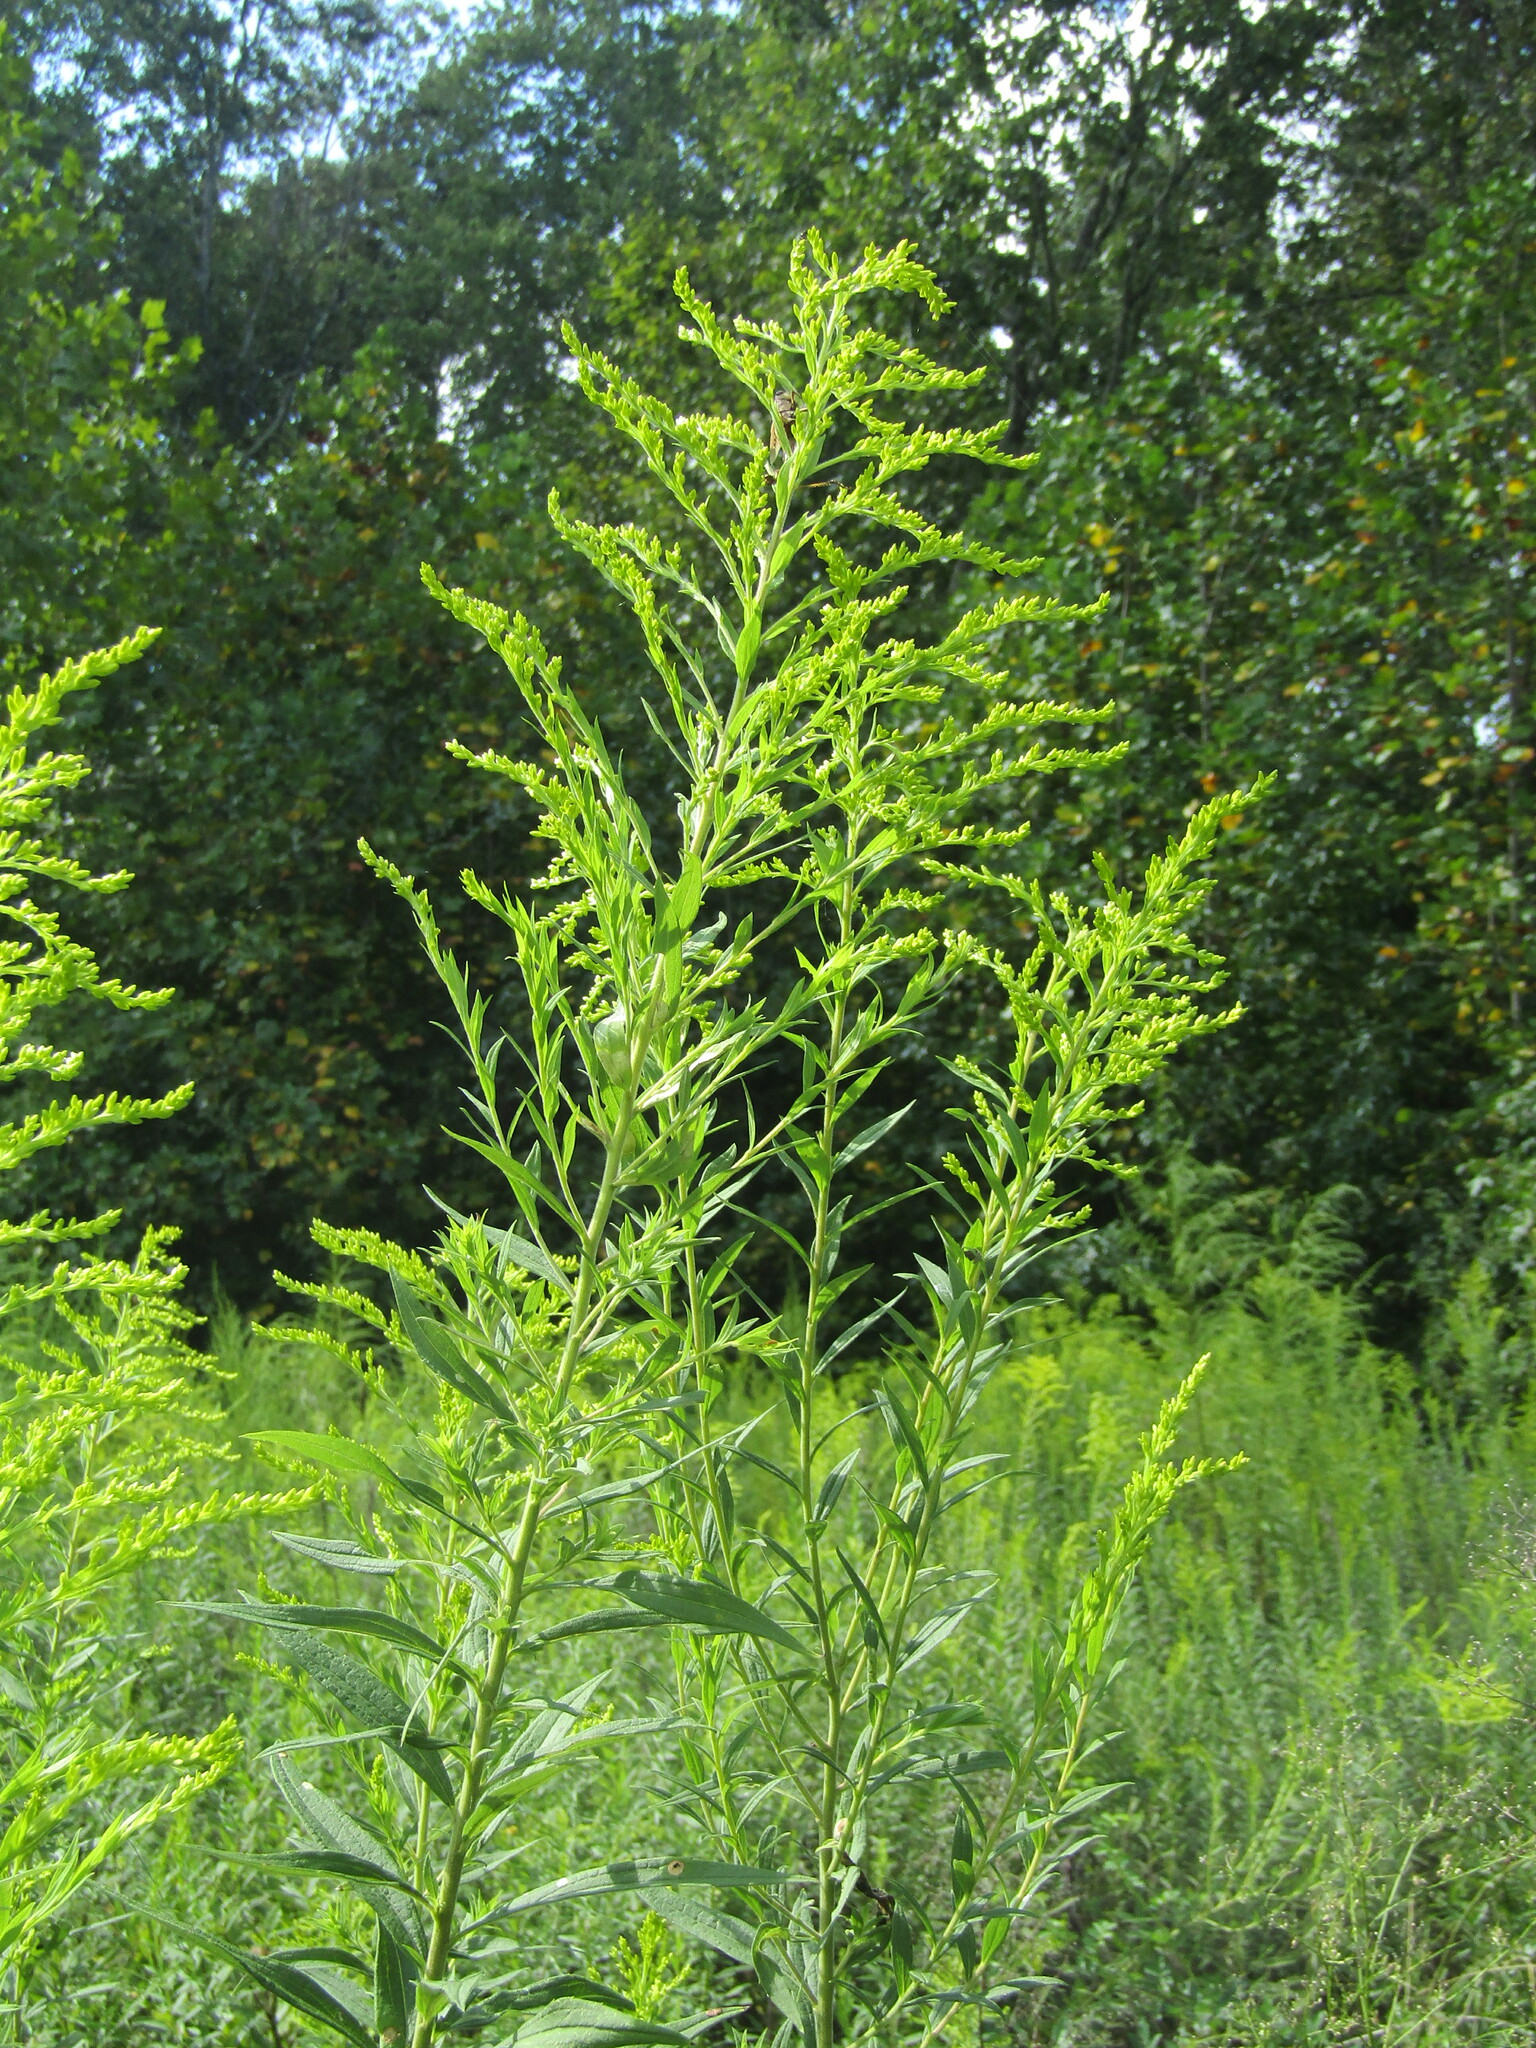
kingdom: Plantae
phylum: Tracheophyta
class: Magnoliopsida
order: Asterales
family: Asteraceae
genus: Solidago
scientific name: Solidago altissima
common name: Late goldenrod
